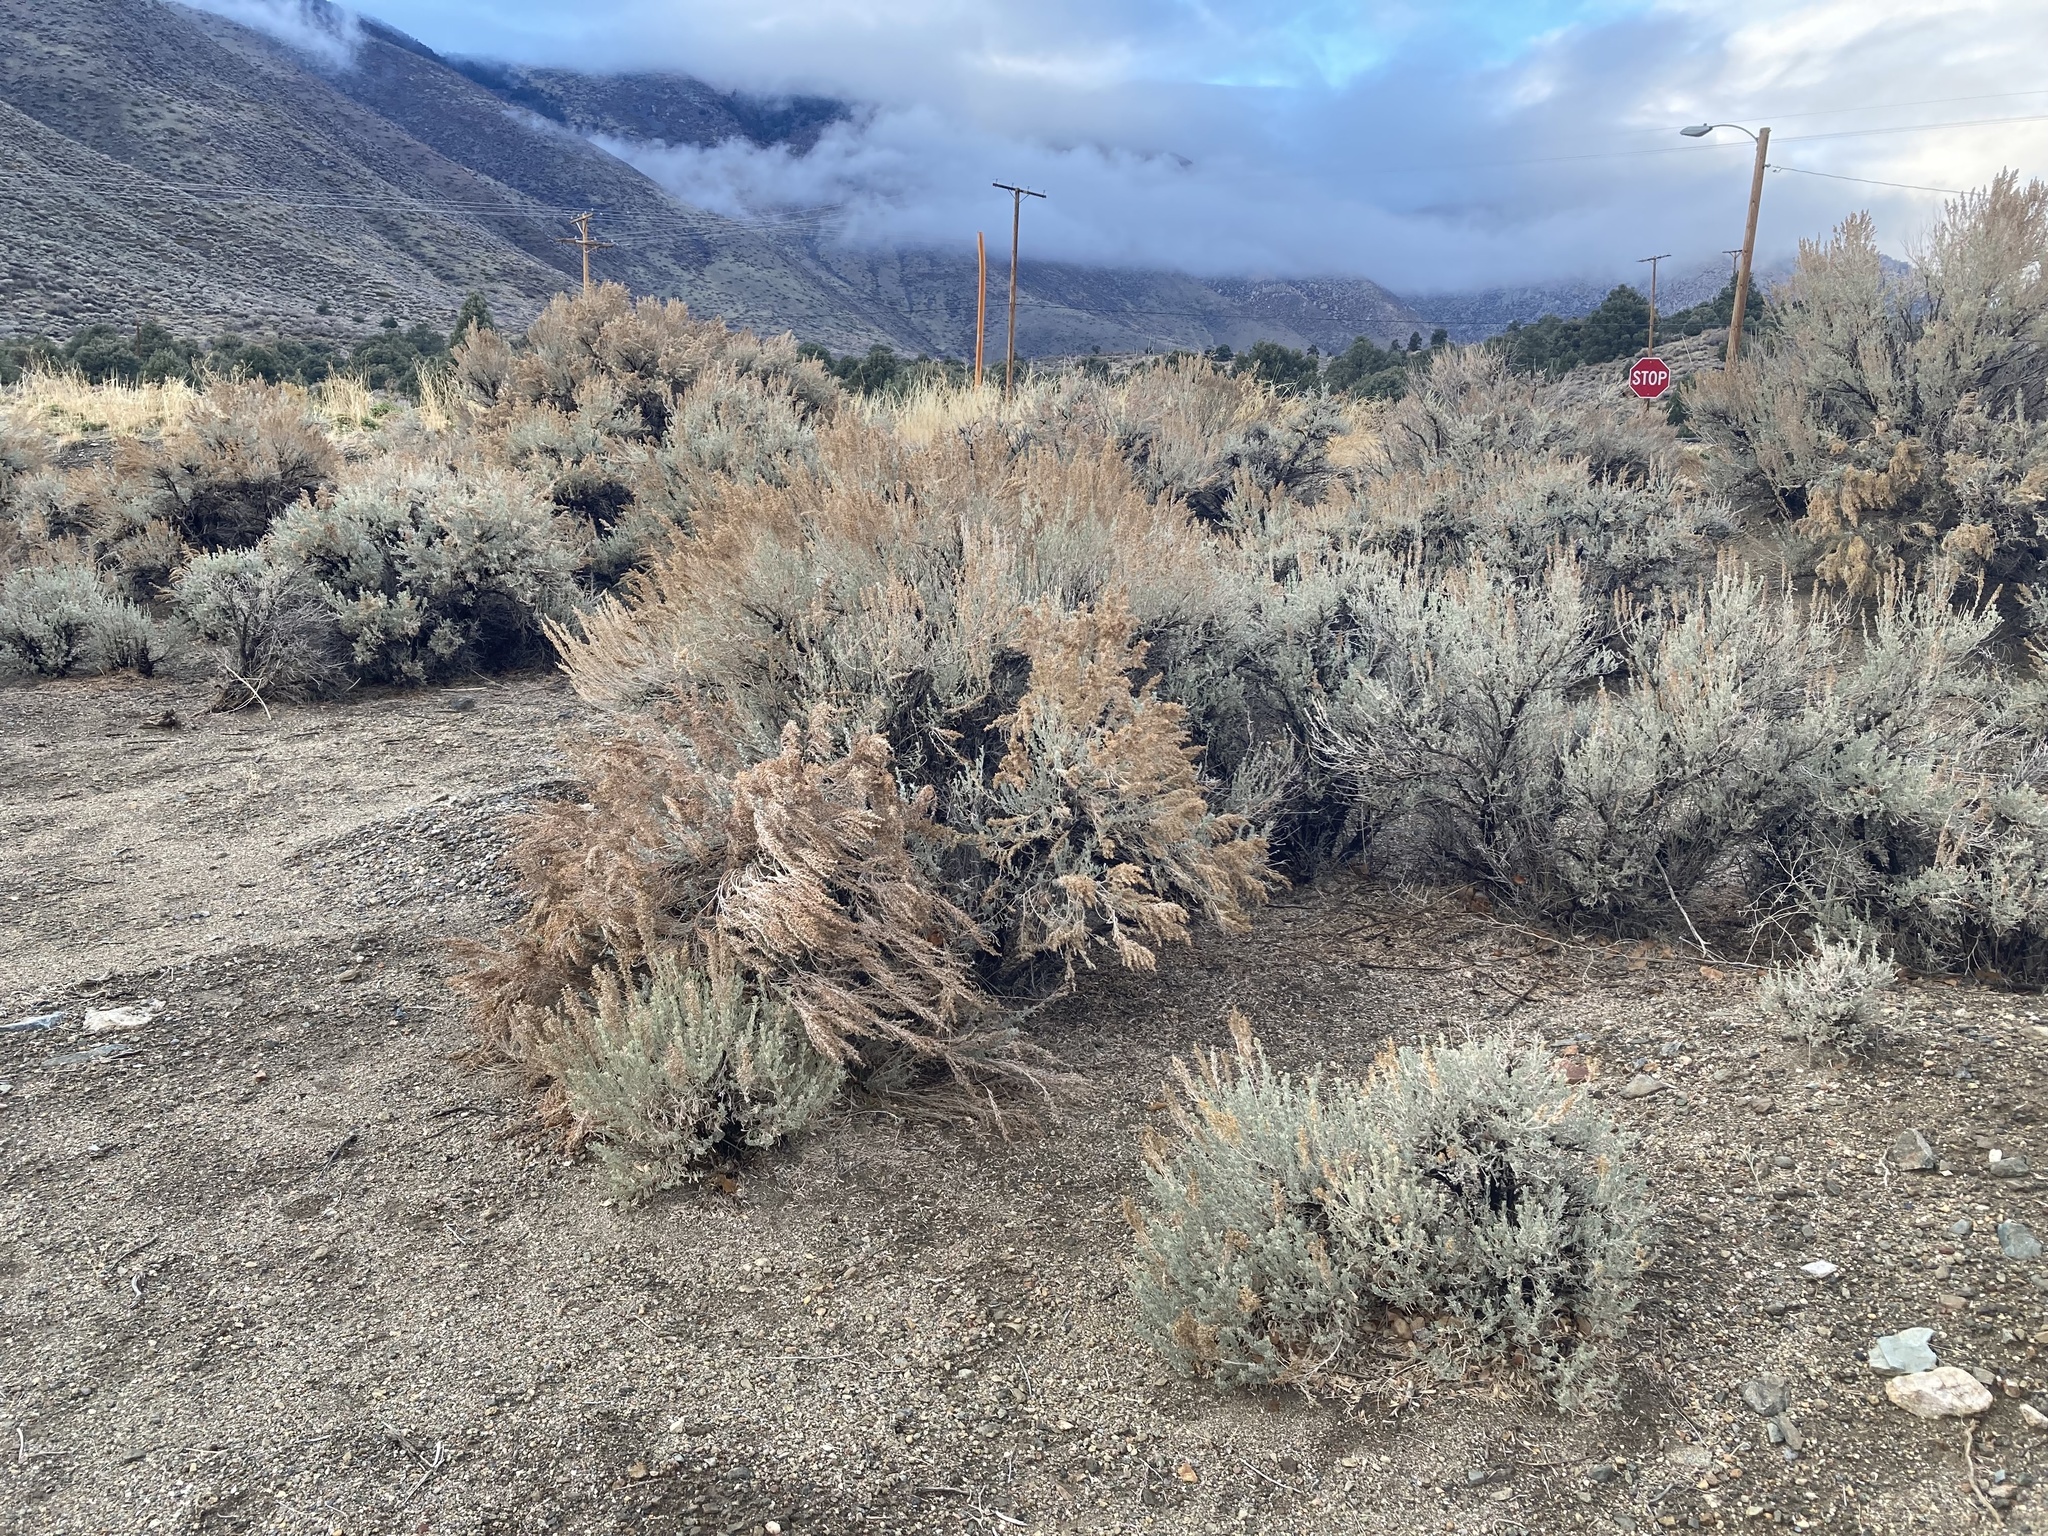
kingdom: Plantae
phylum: Tracheophyta
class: Magnoliopsida
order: Asterales
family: Asteraceae
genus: Artemisia
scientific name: Artemisia tridentata
